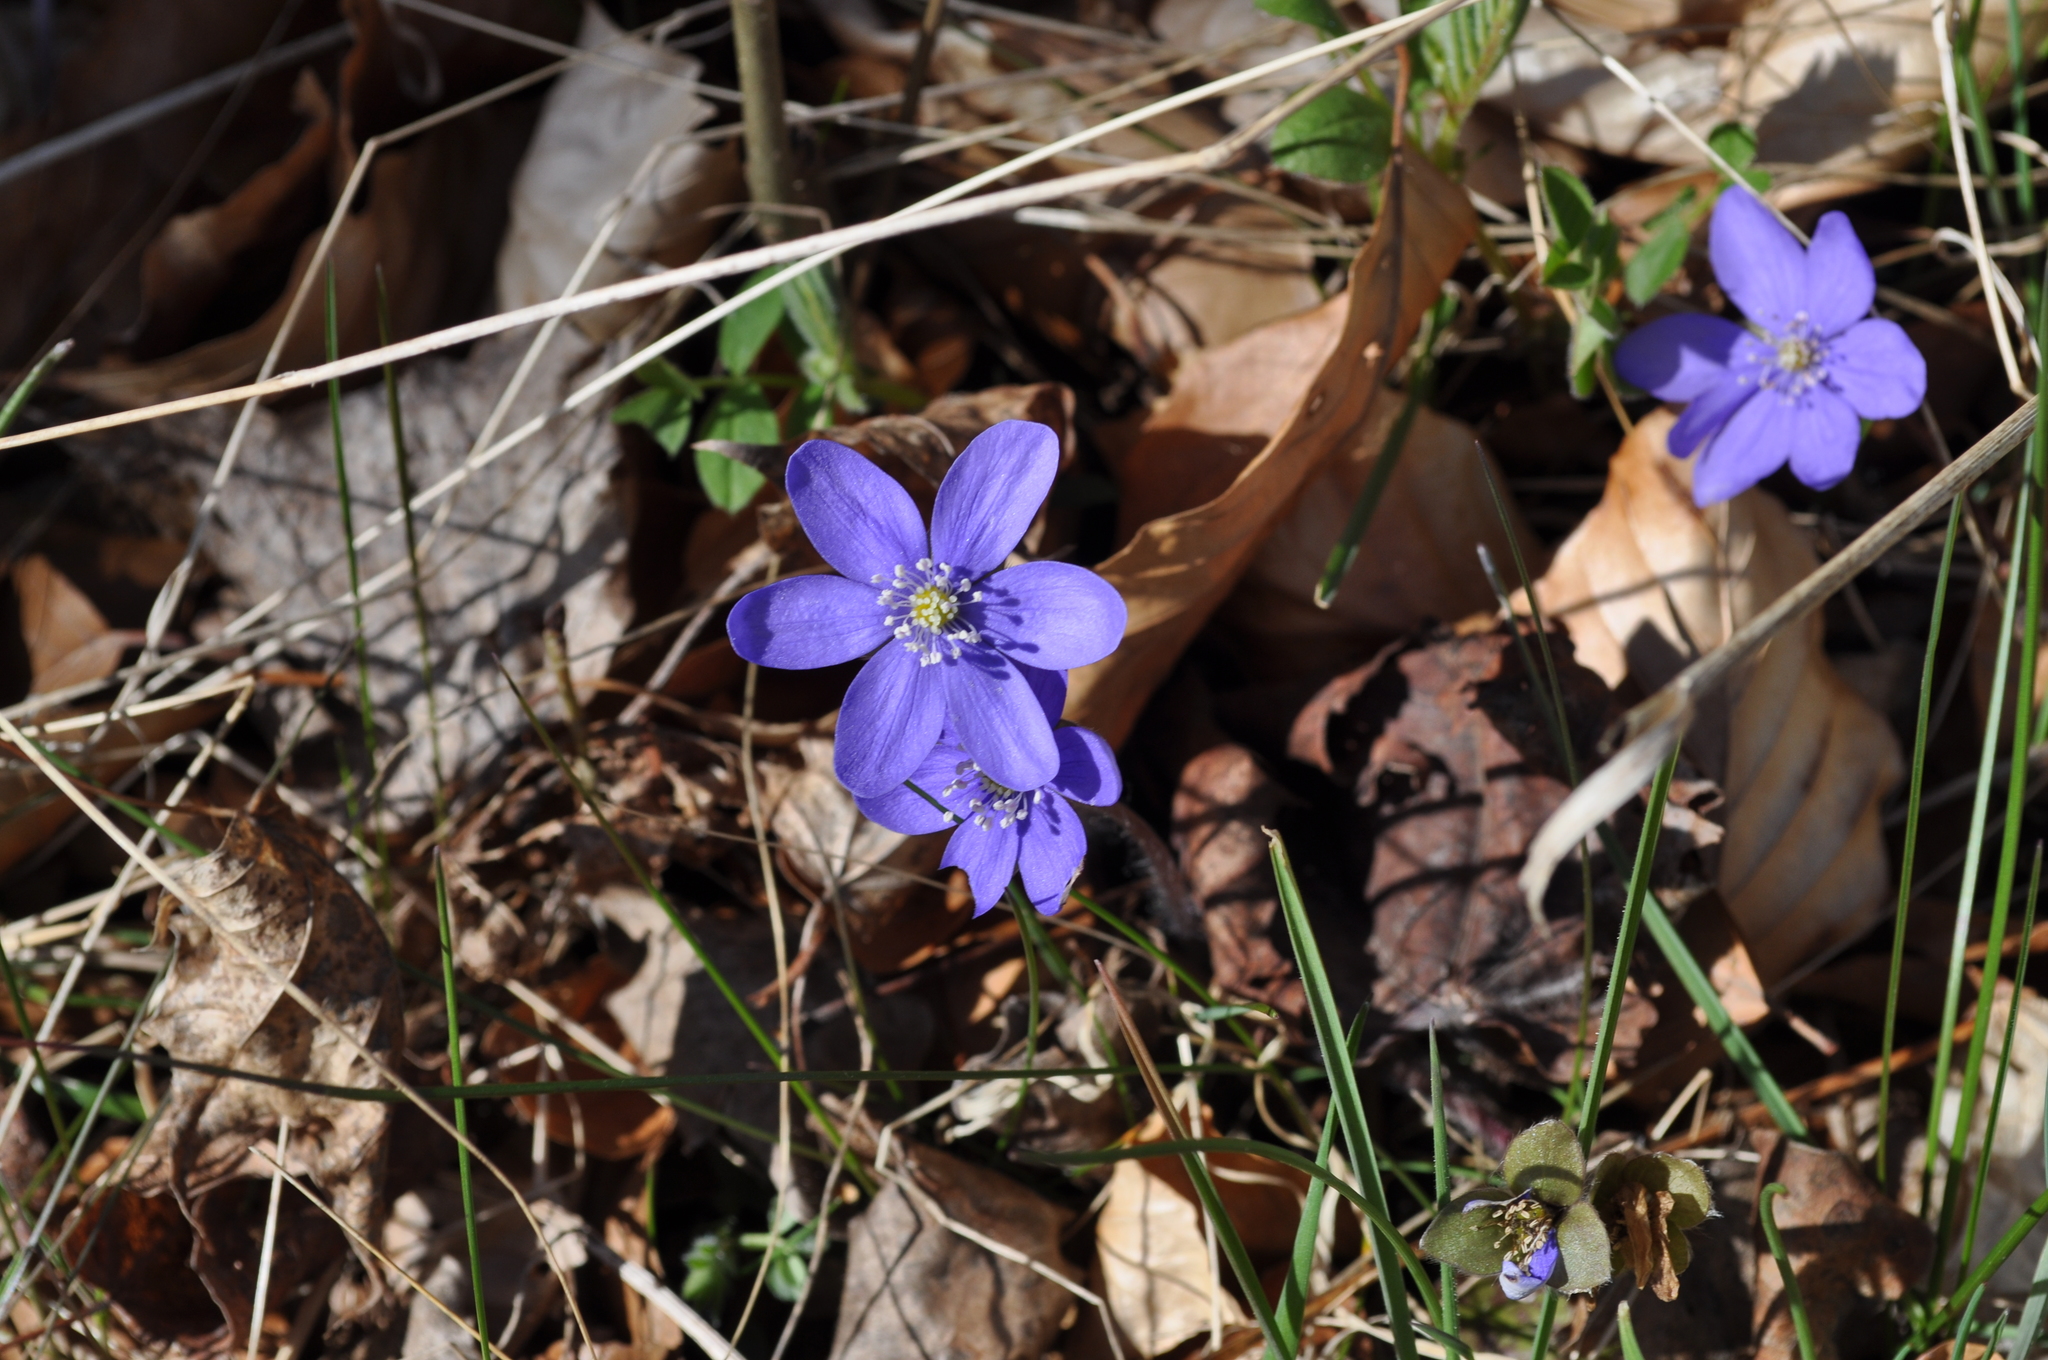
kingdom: Plantae
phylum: Tracheophyta
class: Magnoliopsida
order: Ranunculales
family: Ranunculaceae
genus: Hepatica
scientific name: Hepatica nobilis
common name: Liverleaf
